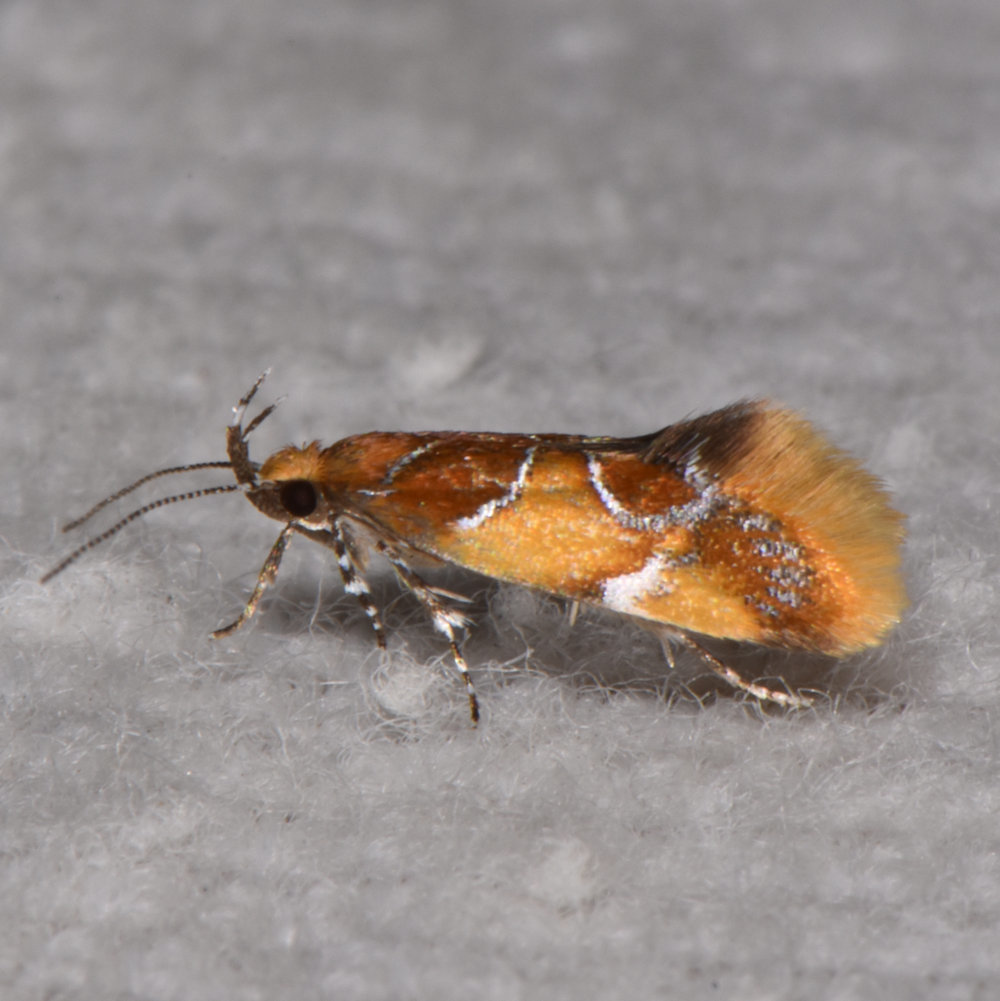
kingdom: Animalia
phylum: Arthropoda
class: Insecta
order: Lepidoptera
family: Oecophoridae
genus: Callima
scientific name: Callima argenticinctella
